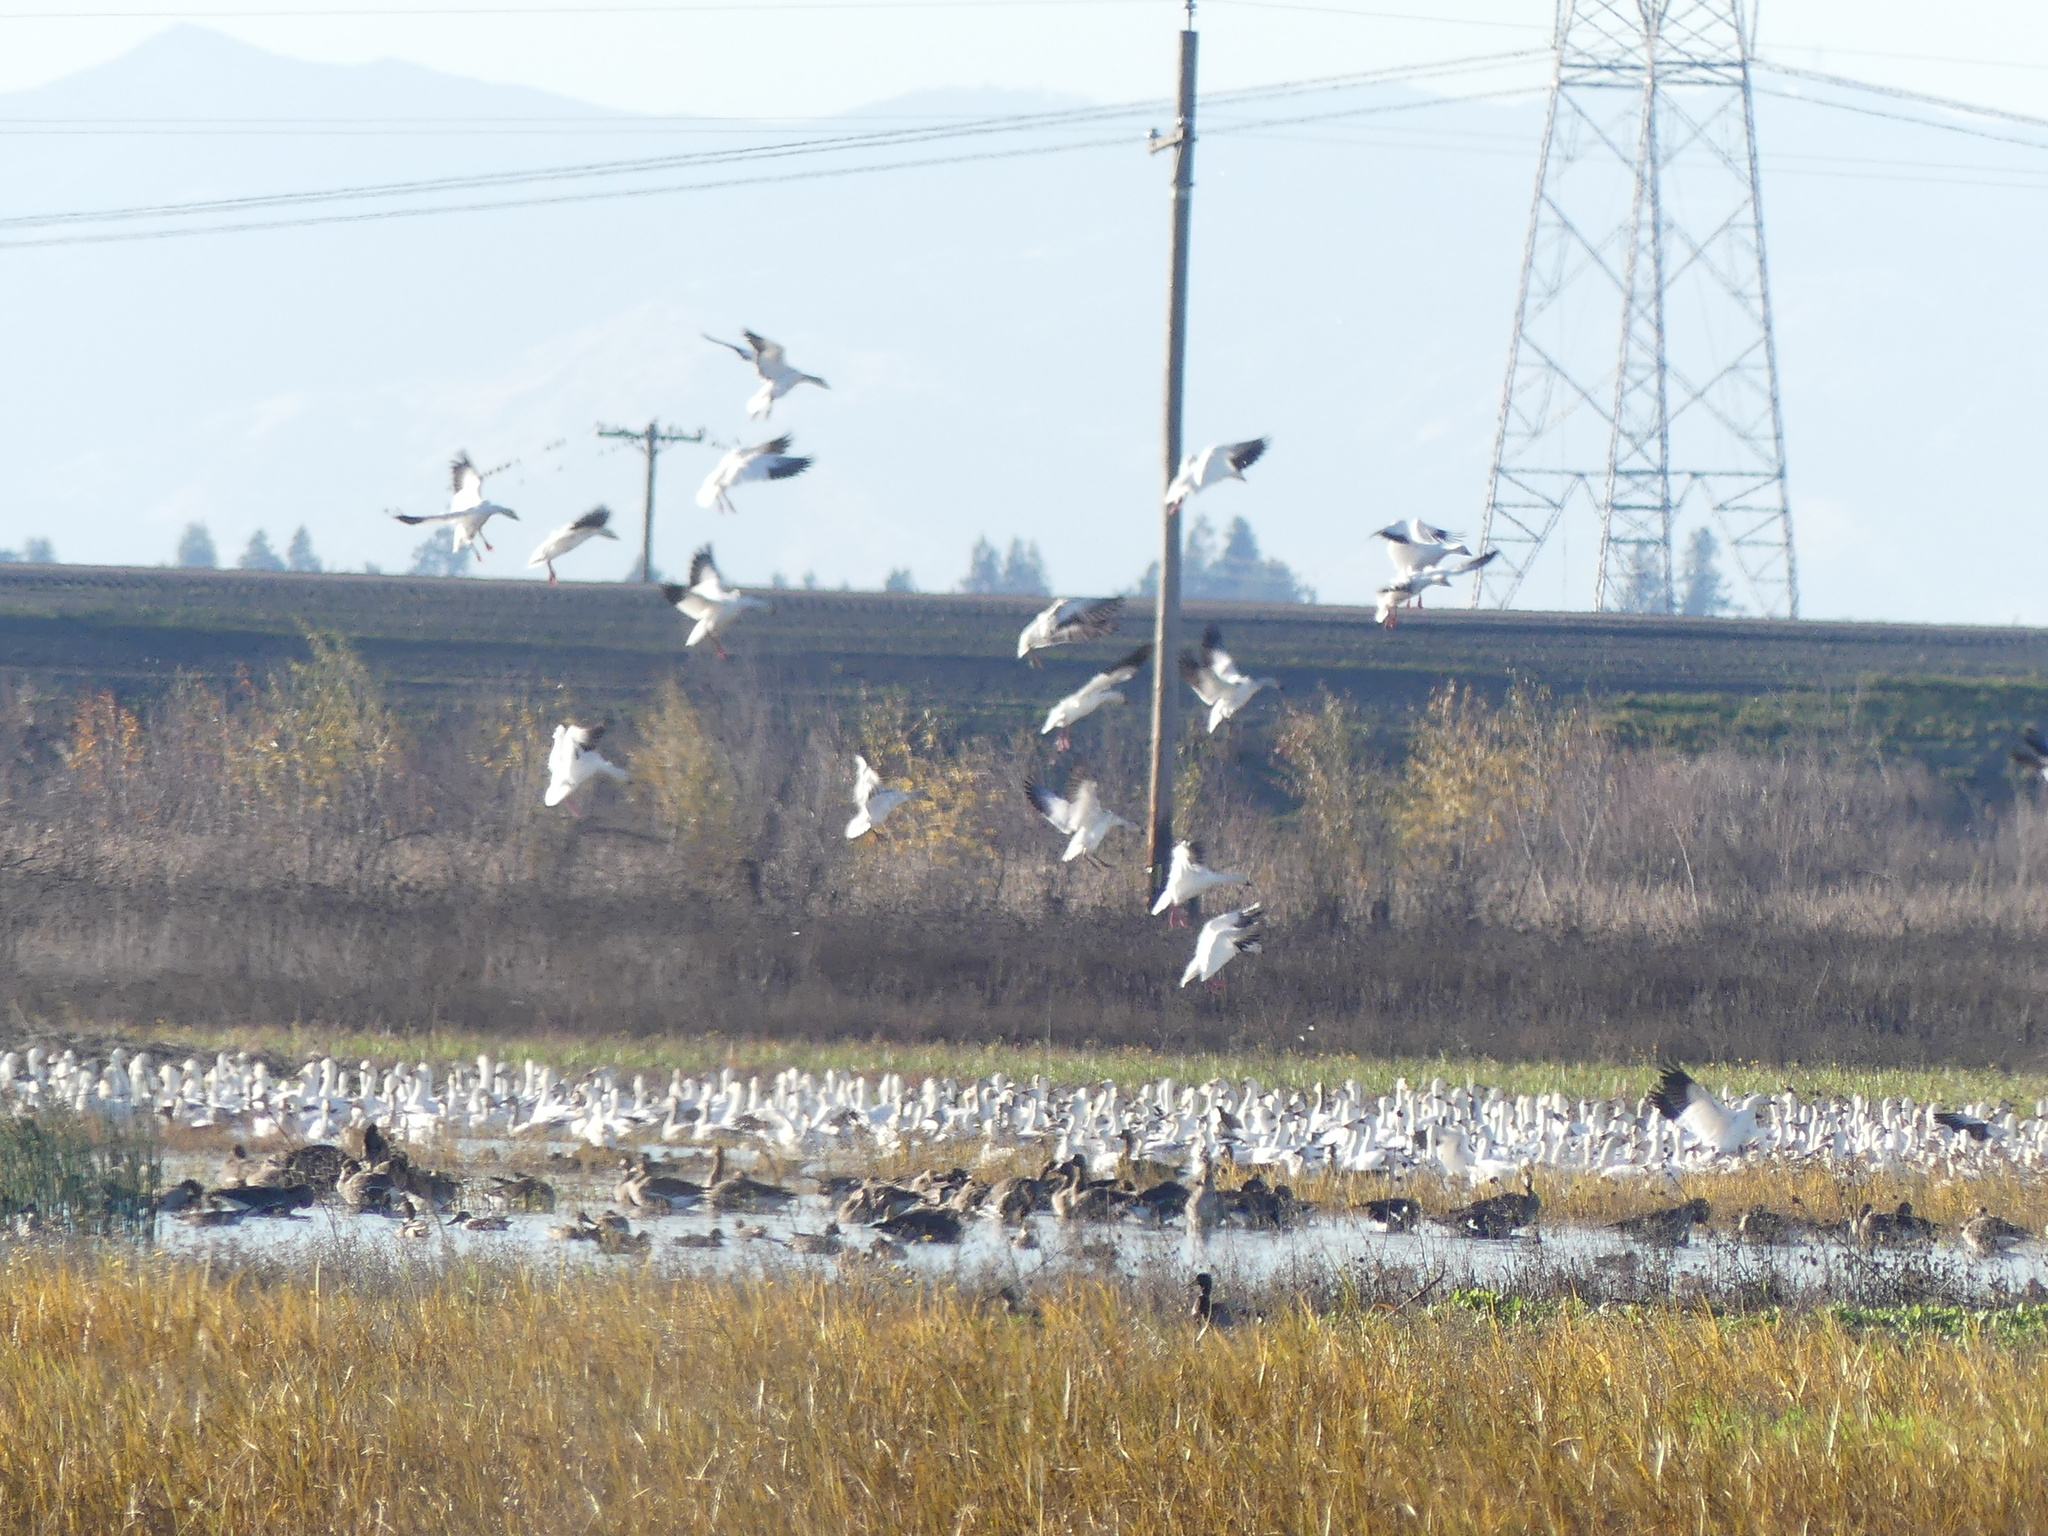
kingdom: Animalia
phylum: Chordata
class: Aves
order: Anseriformes
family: Anatidae
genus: Anser
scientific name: Anser caerulescens
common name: Snow goose
